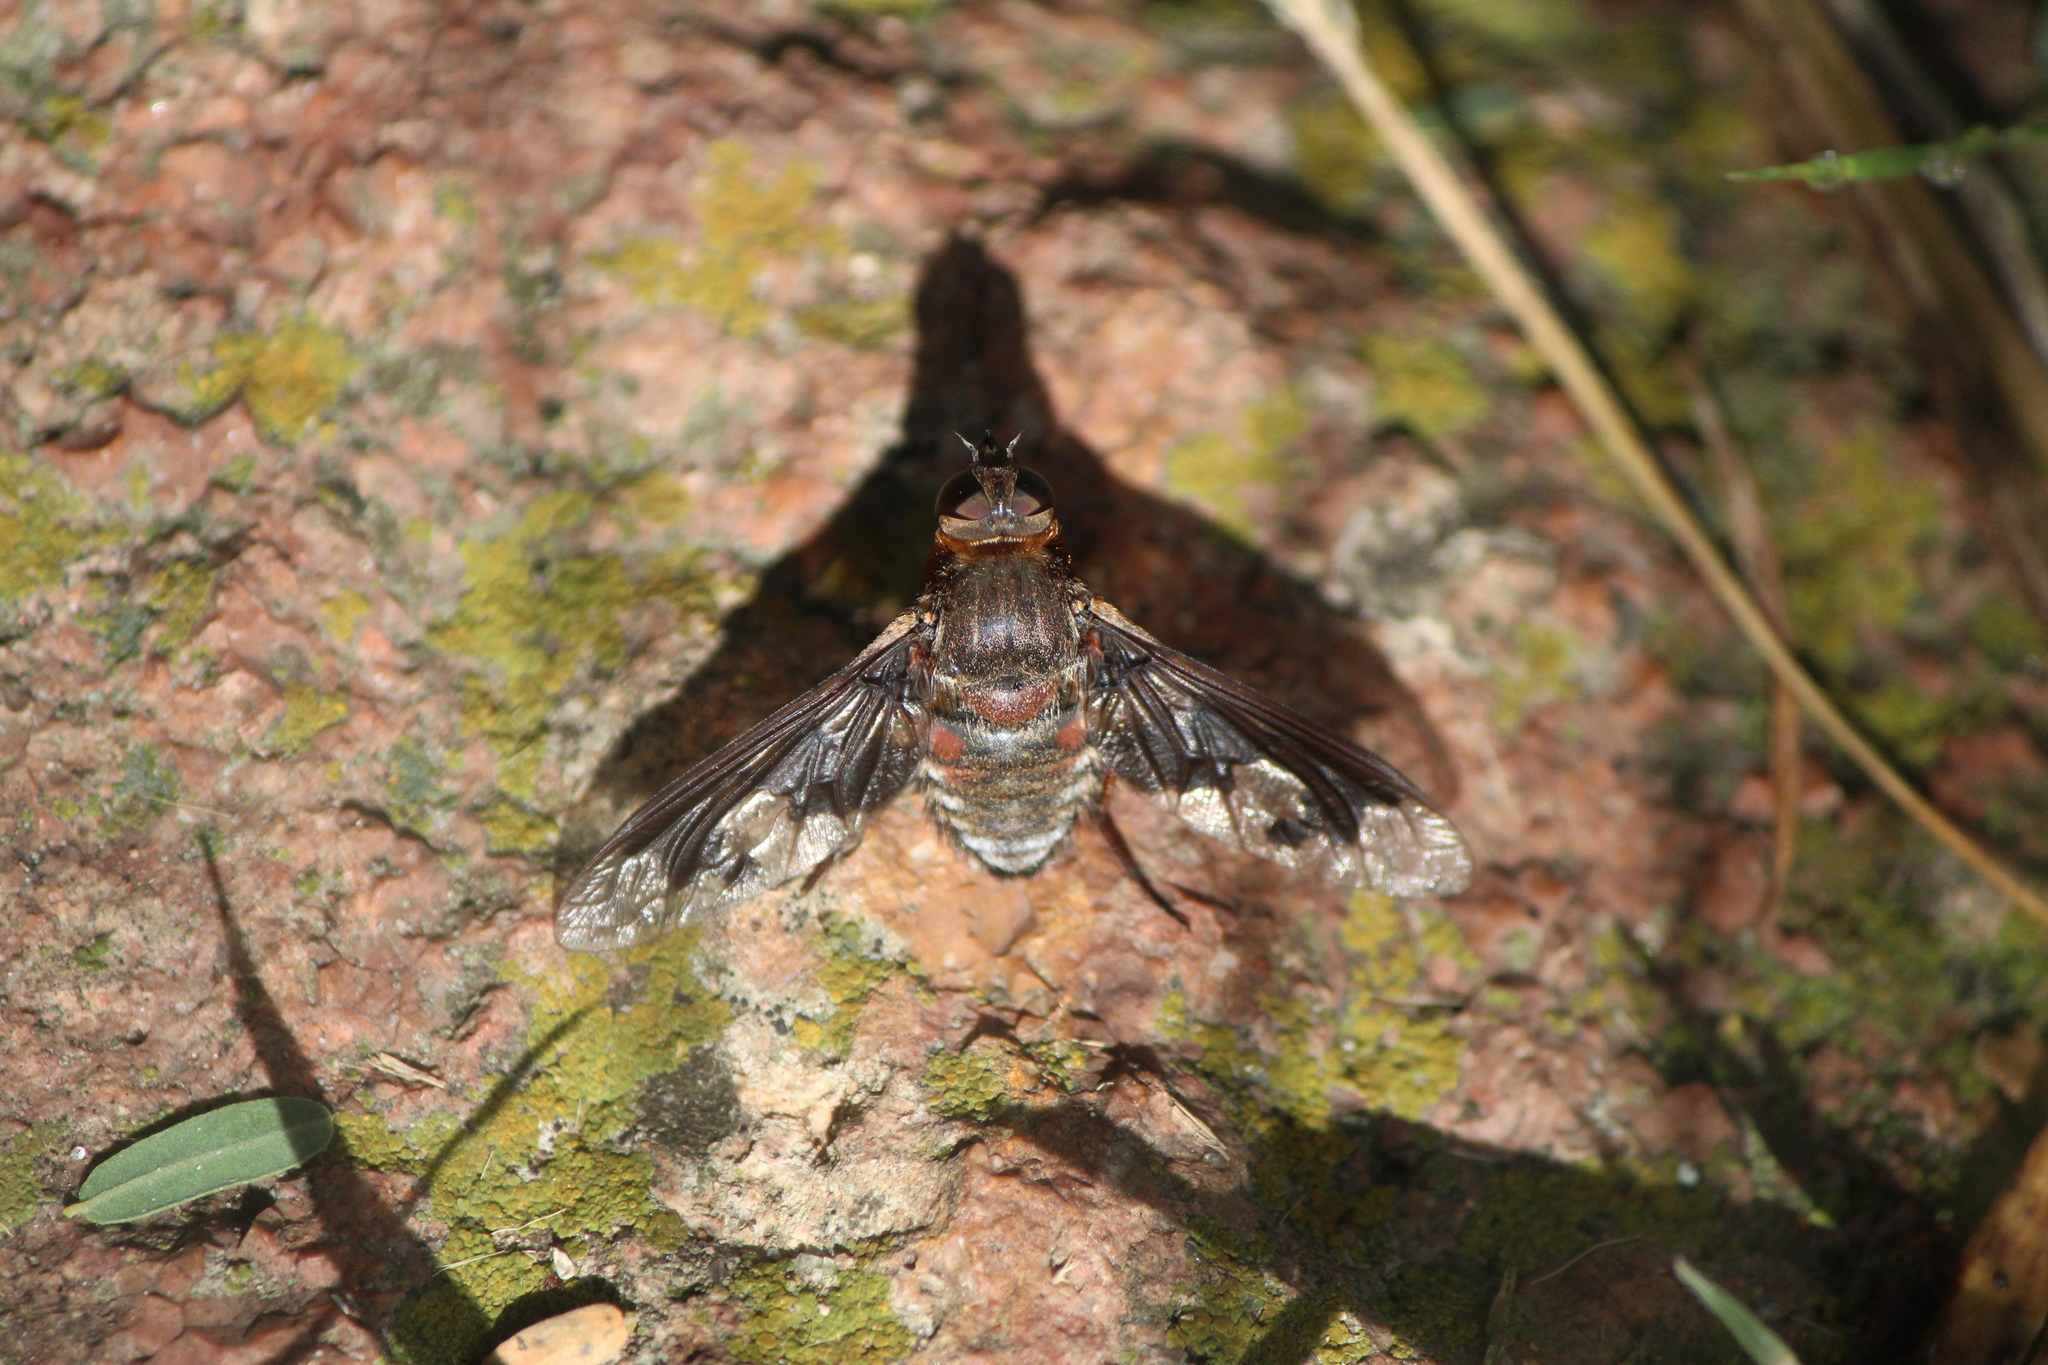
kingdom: Animalia
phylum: Arthropoda
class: Insecta
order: Diptera
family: Bombyliidae
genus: Exoprosopa
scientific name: Exoprosopa pueblensis
